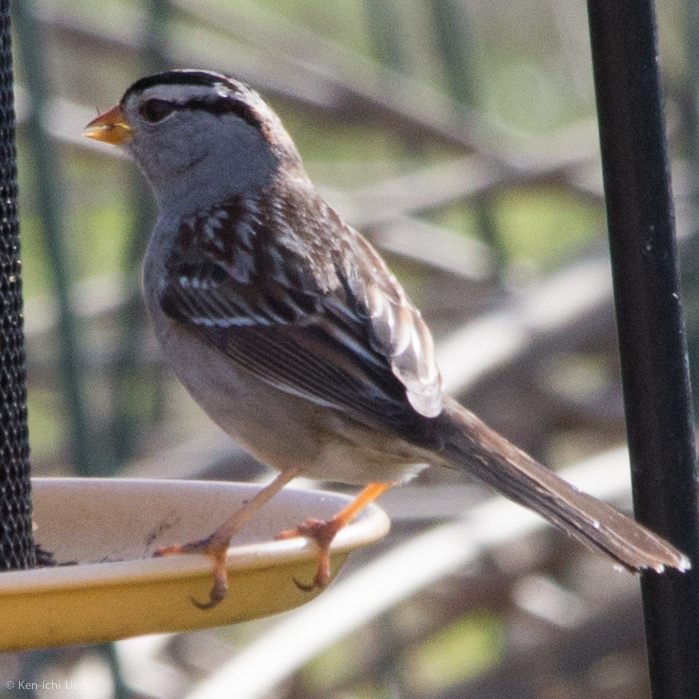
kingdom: Animalia
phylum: Chordata
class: Aves
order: Passeriformes
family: Passerellidae
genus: Zonotrichia
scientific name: Zonotrichia leucophrys
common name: White-crowned sparrow
